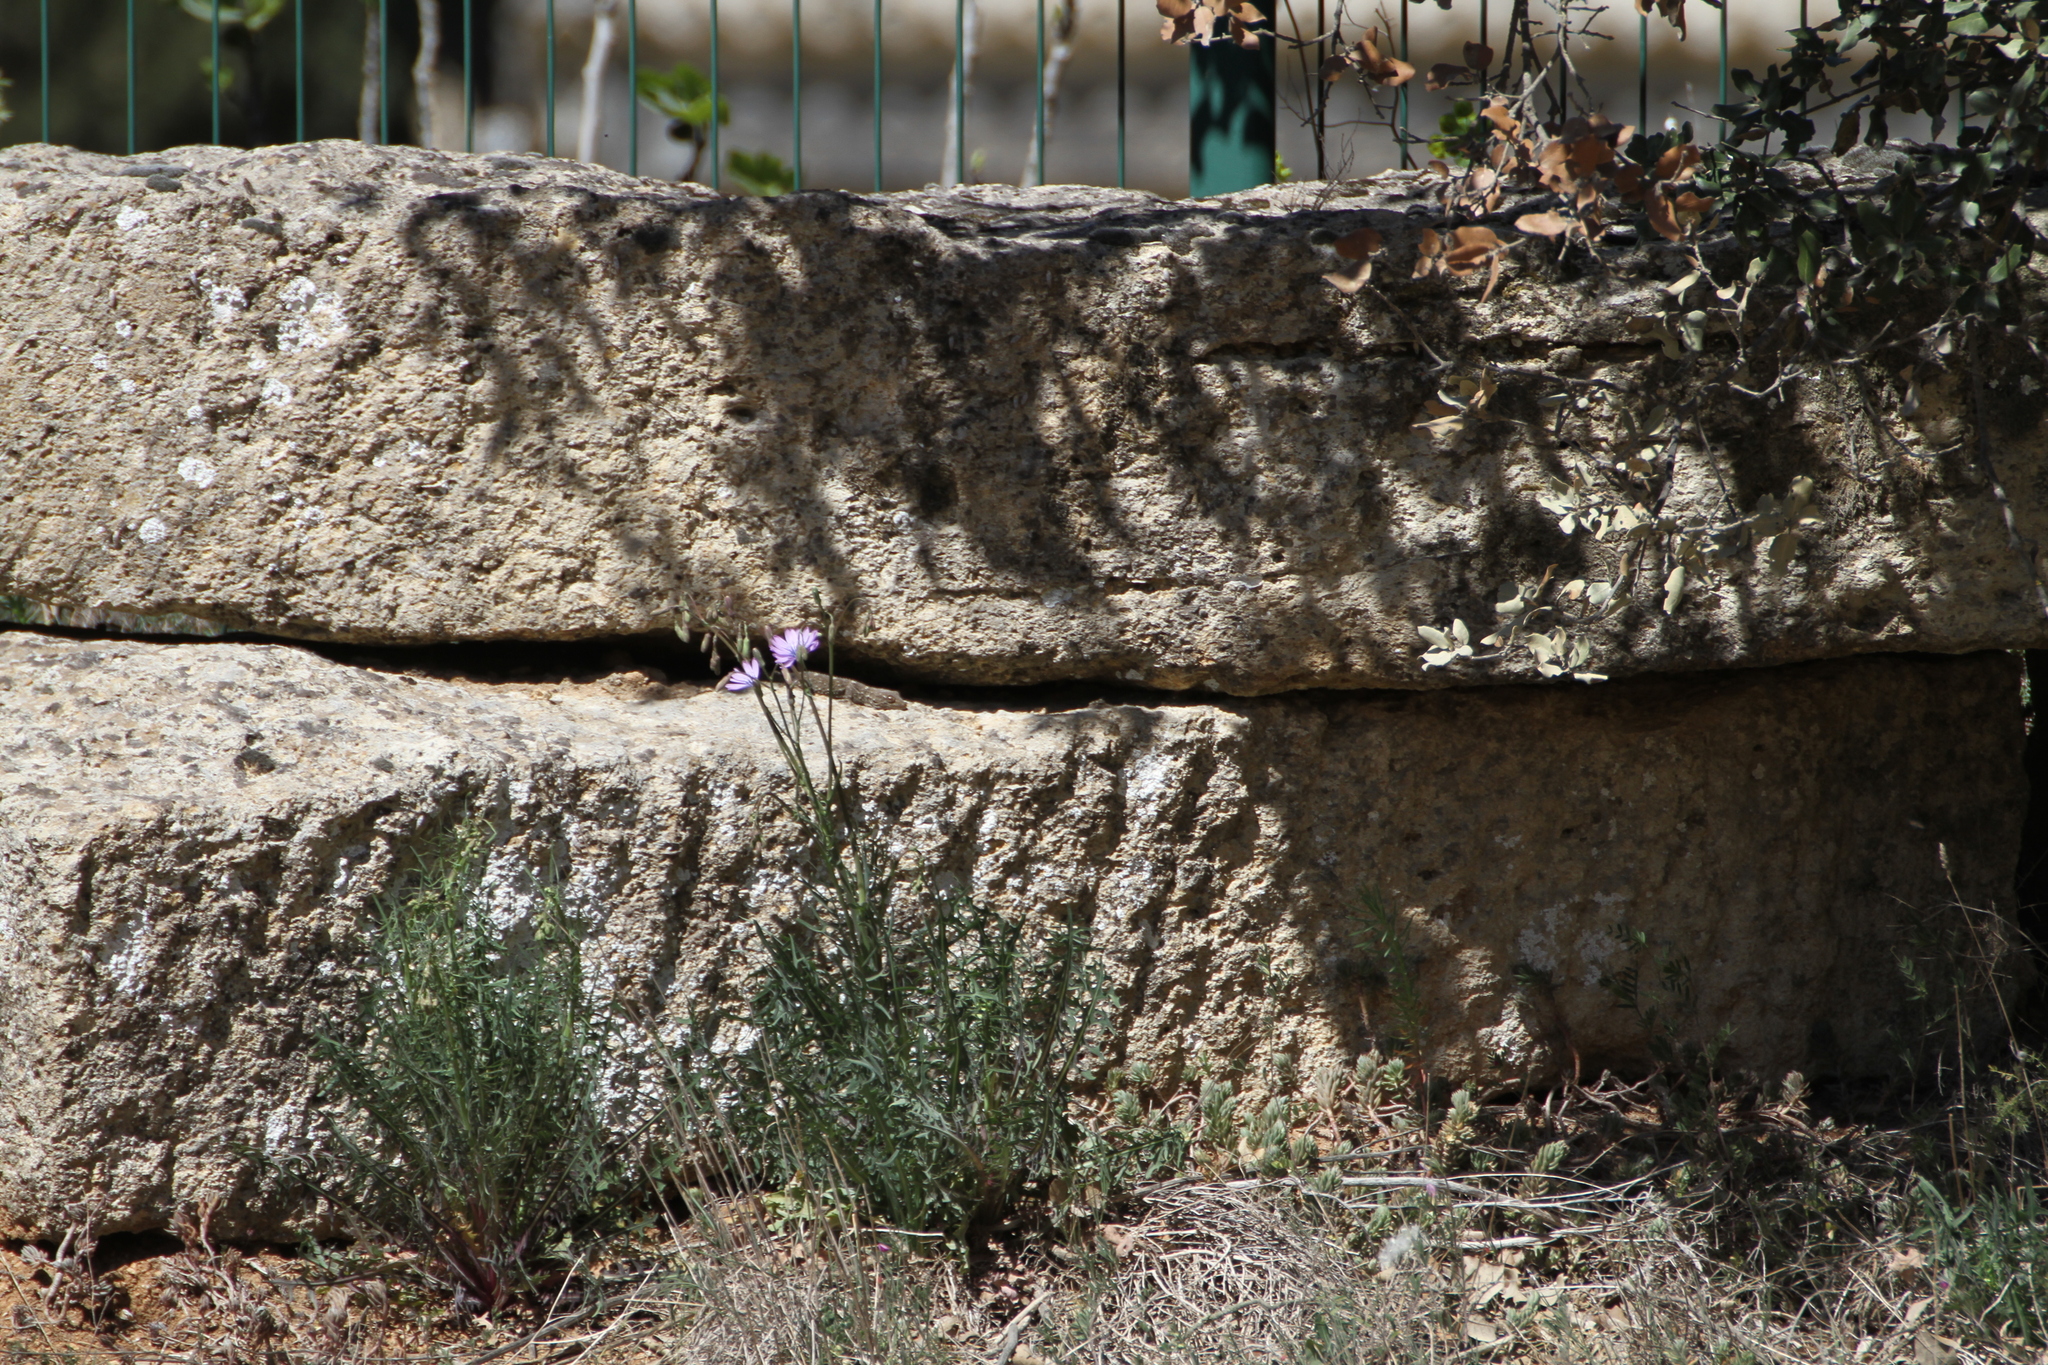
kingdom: Animalia
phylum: Chordata
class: Squamata
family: Phyllodactylidae
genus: Tarentola
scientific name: Tarentola mauritanica
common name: Moorish gecko
